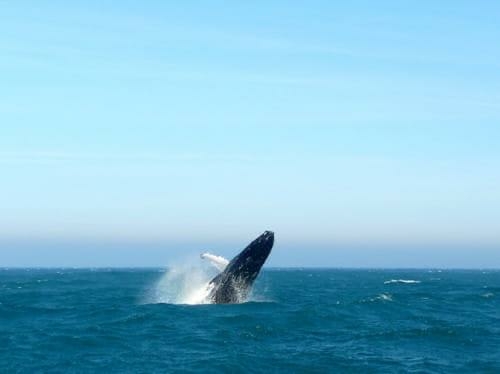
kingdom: Animalia
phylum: Chordata
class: Mammalia
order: Cetacea
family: Balaenopteridae
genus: Megaptera
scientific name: Megaptera novaeangliae
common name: Humpback whale
